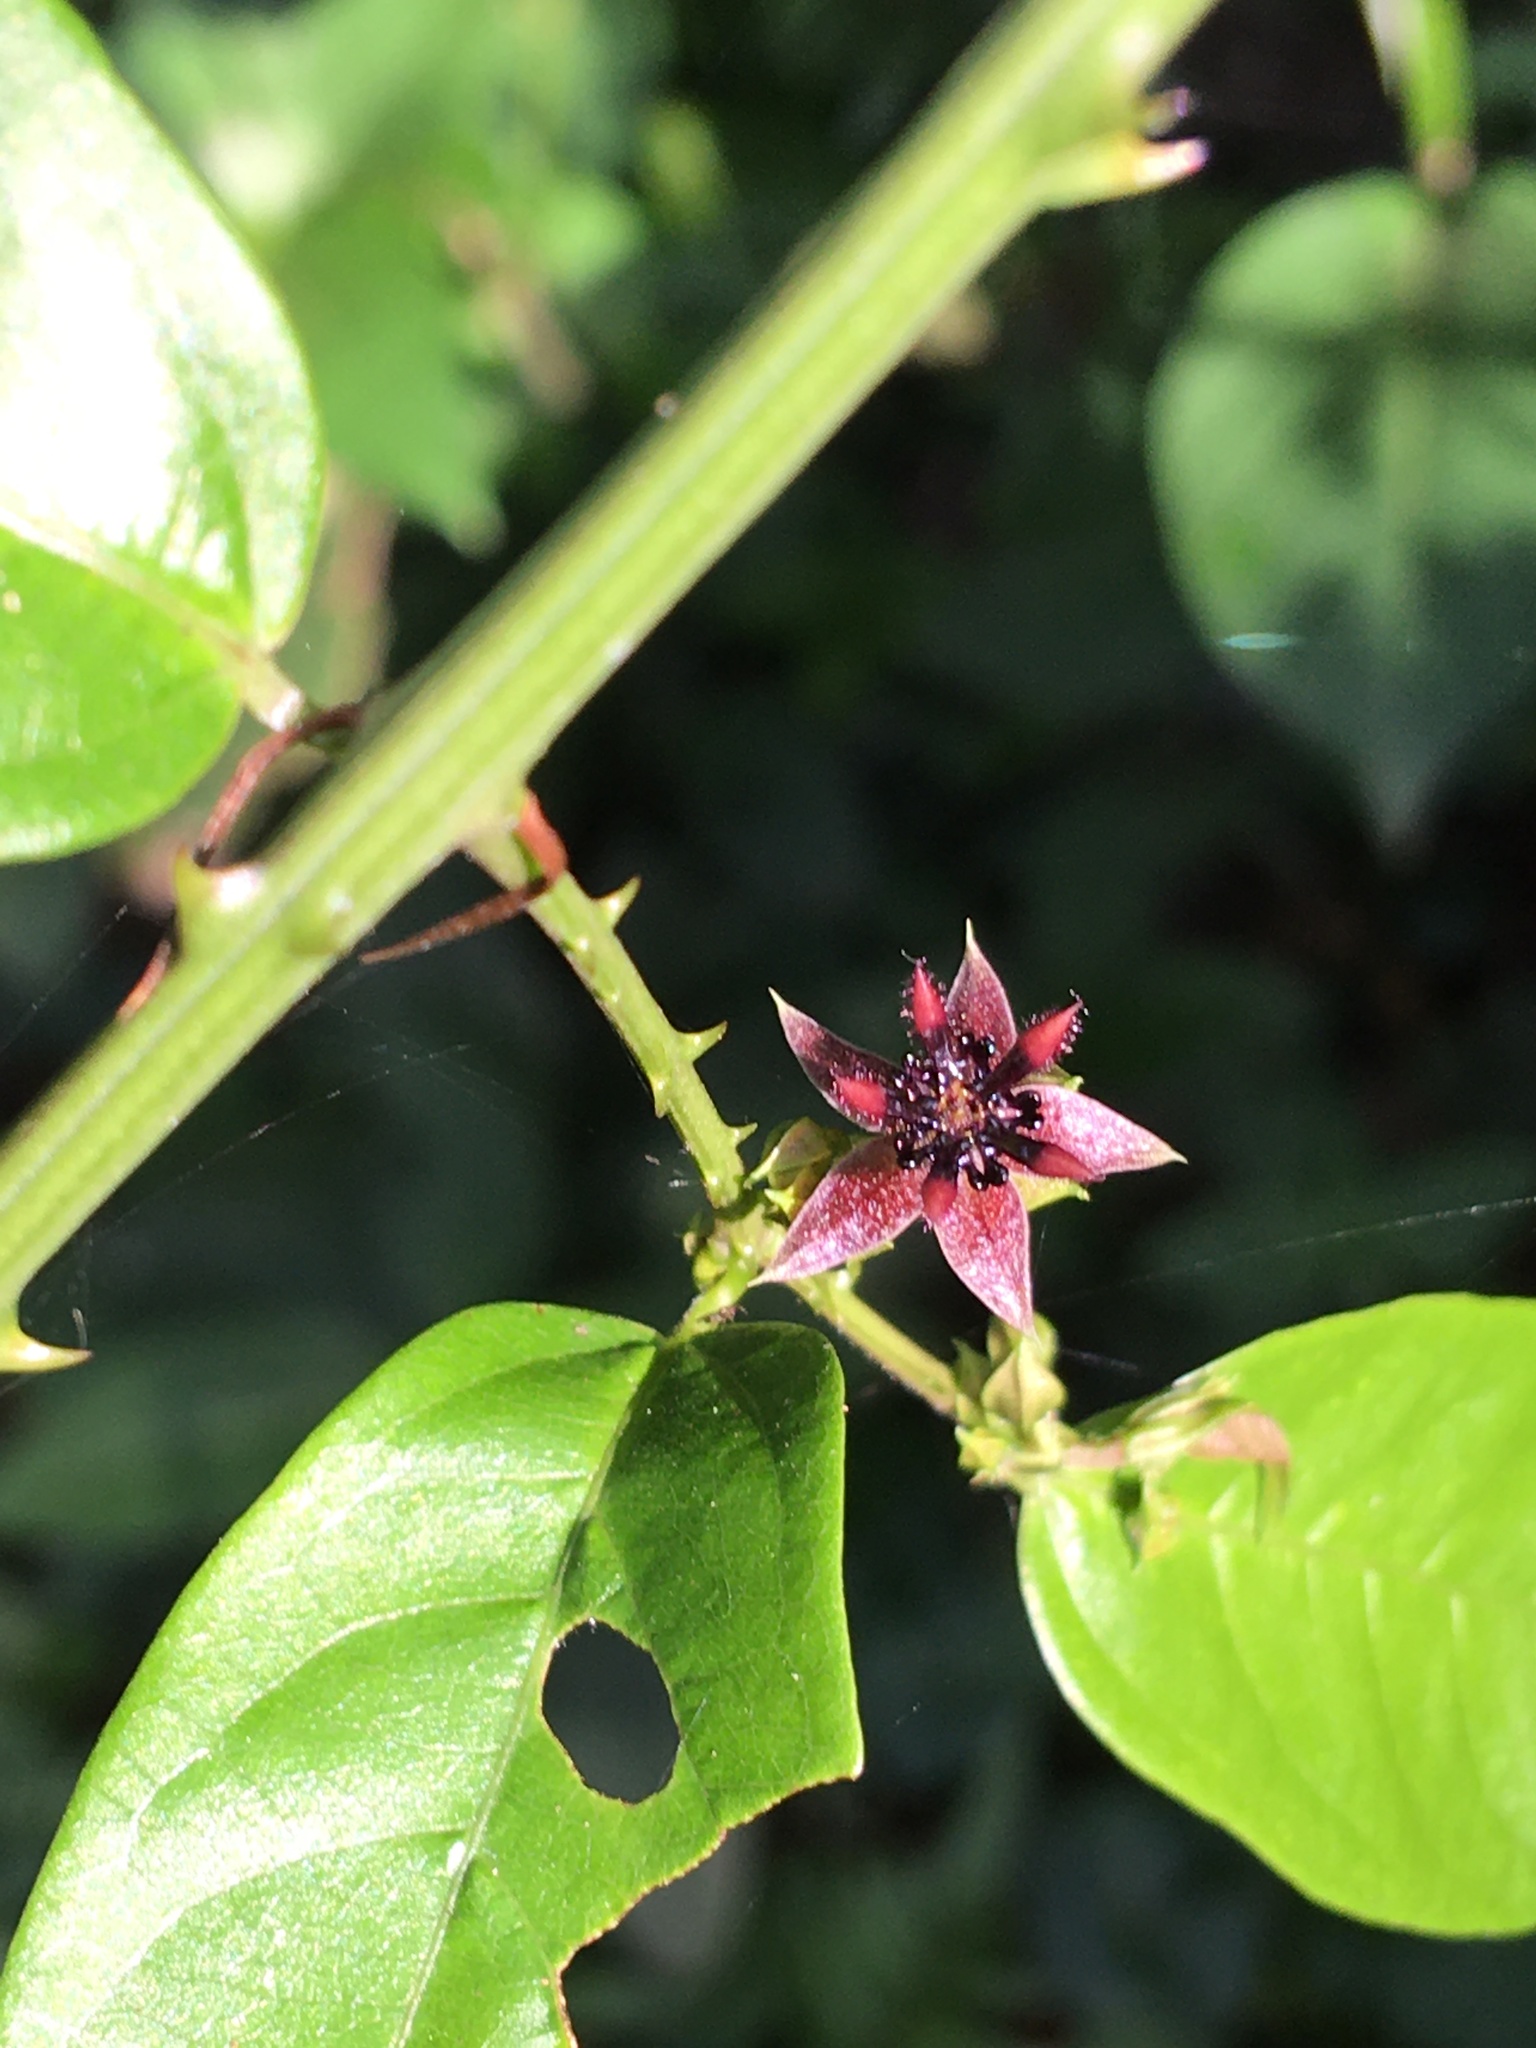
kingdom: Plantae
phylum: Tracheophyta
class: Magnoliopsida
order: Malvales
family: Malvaceae
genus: Byttneria
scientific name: Byttneria australis
